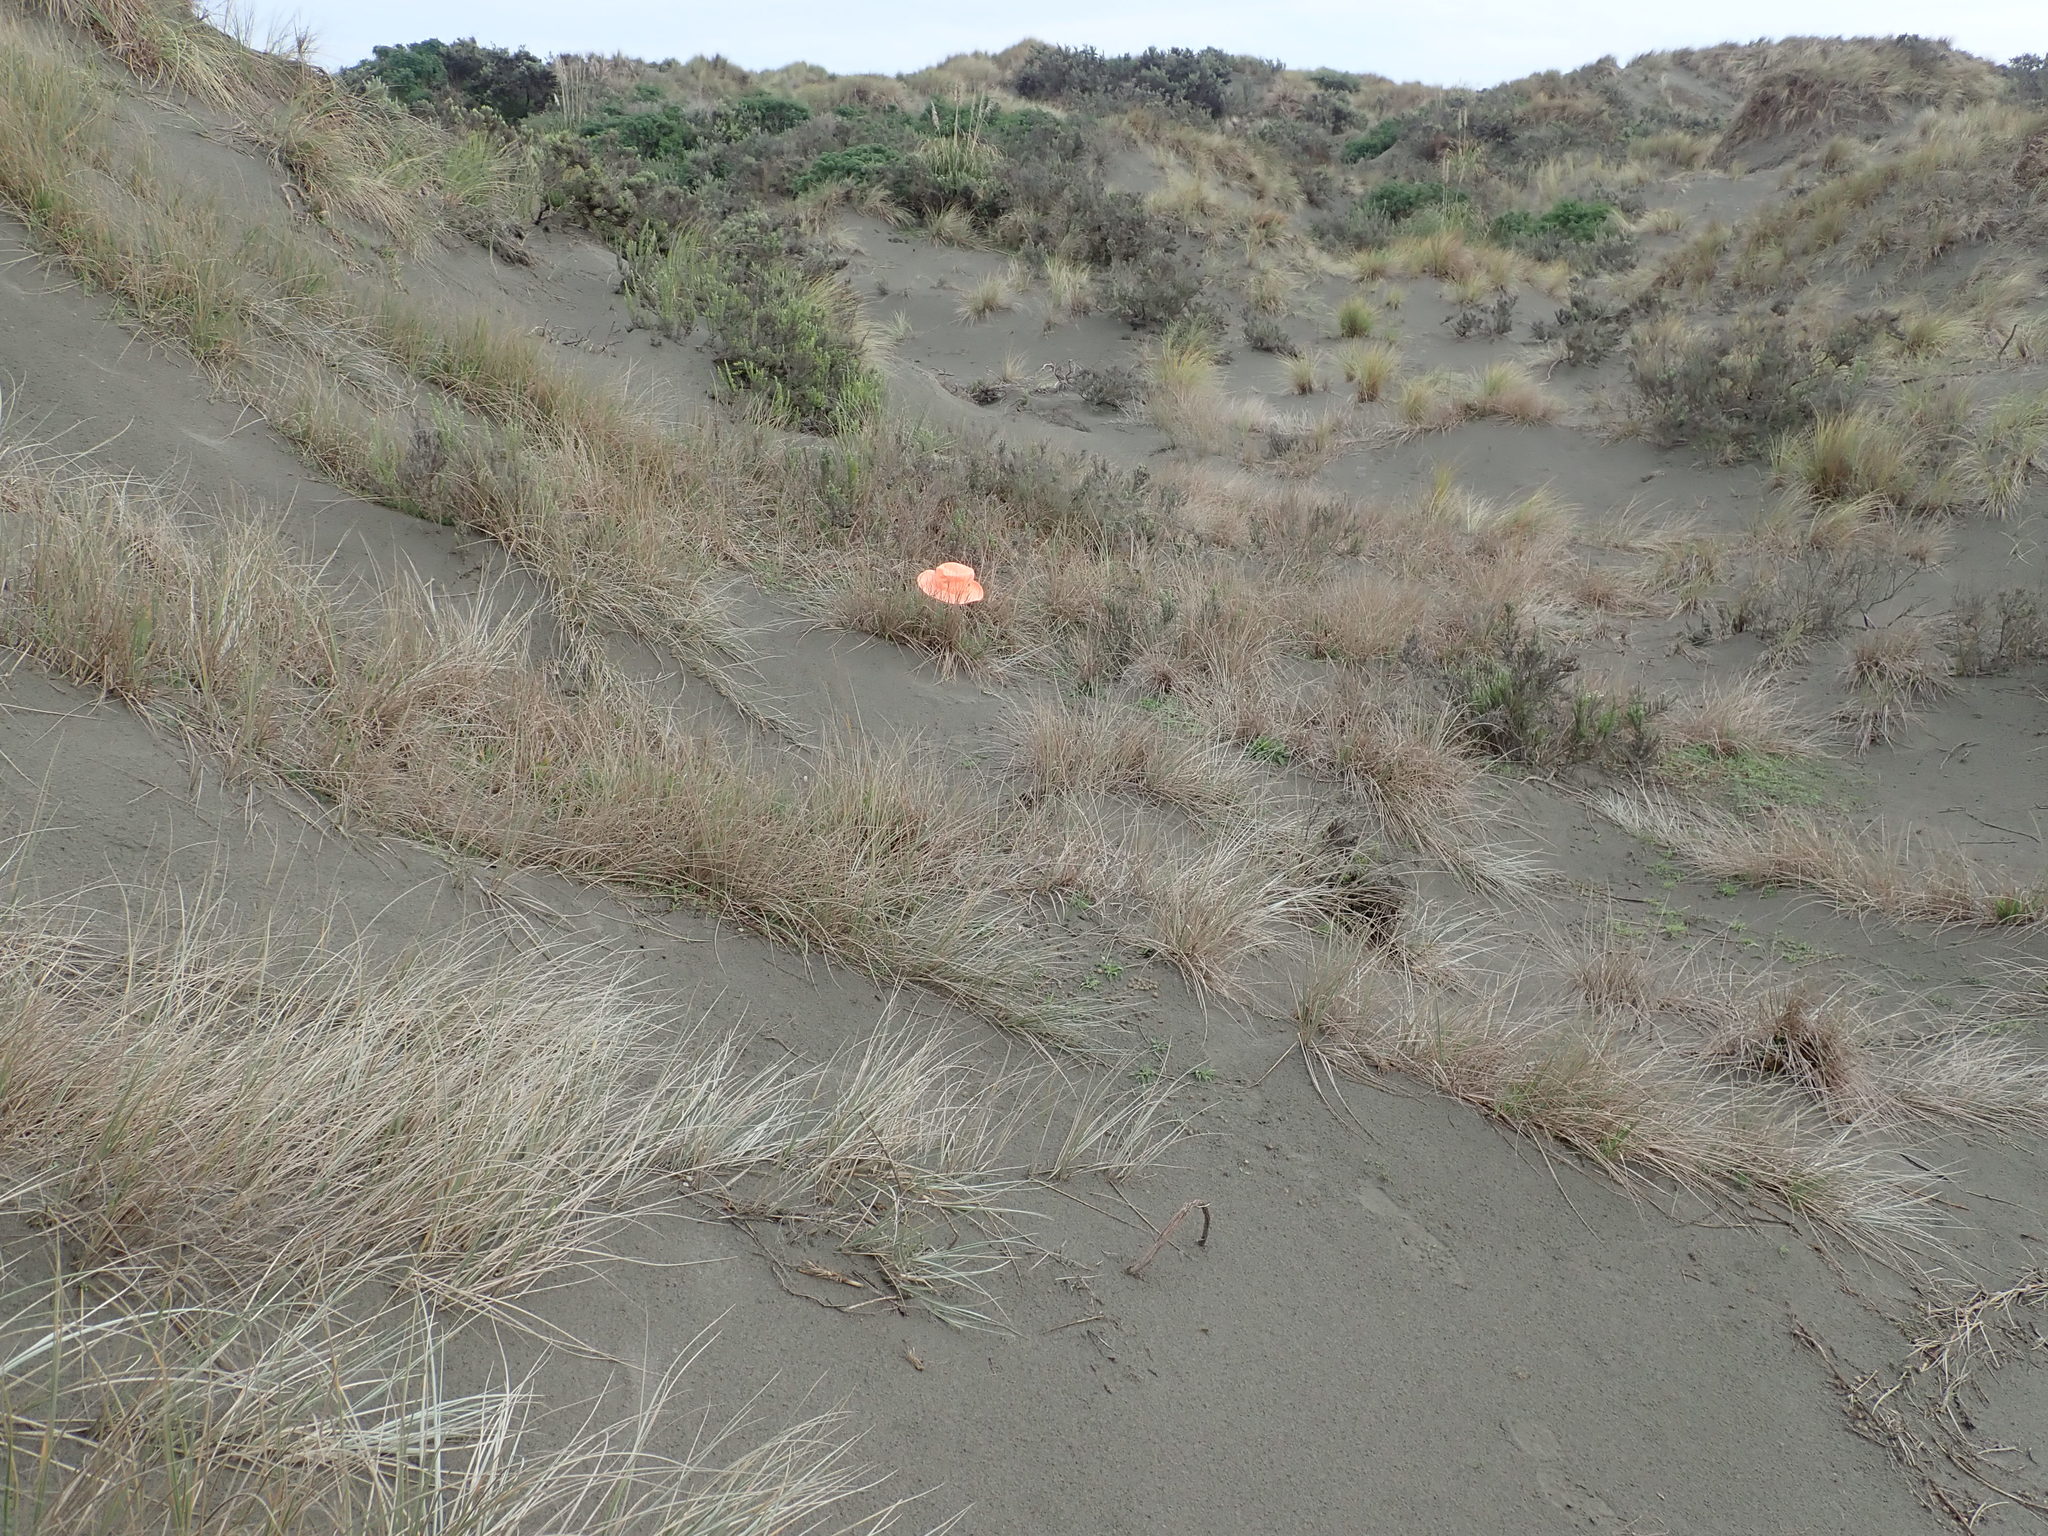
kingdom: Animalia
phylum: Arthropoda
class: Arachnida
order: Araneae
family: Theridiidae
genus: Latrodectus
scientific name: Latrodectus katipo
